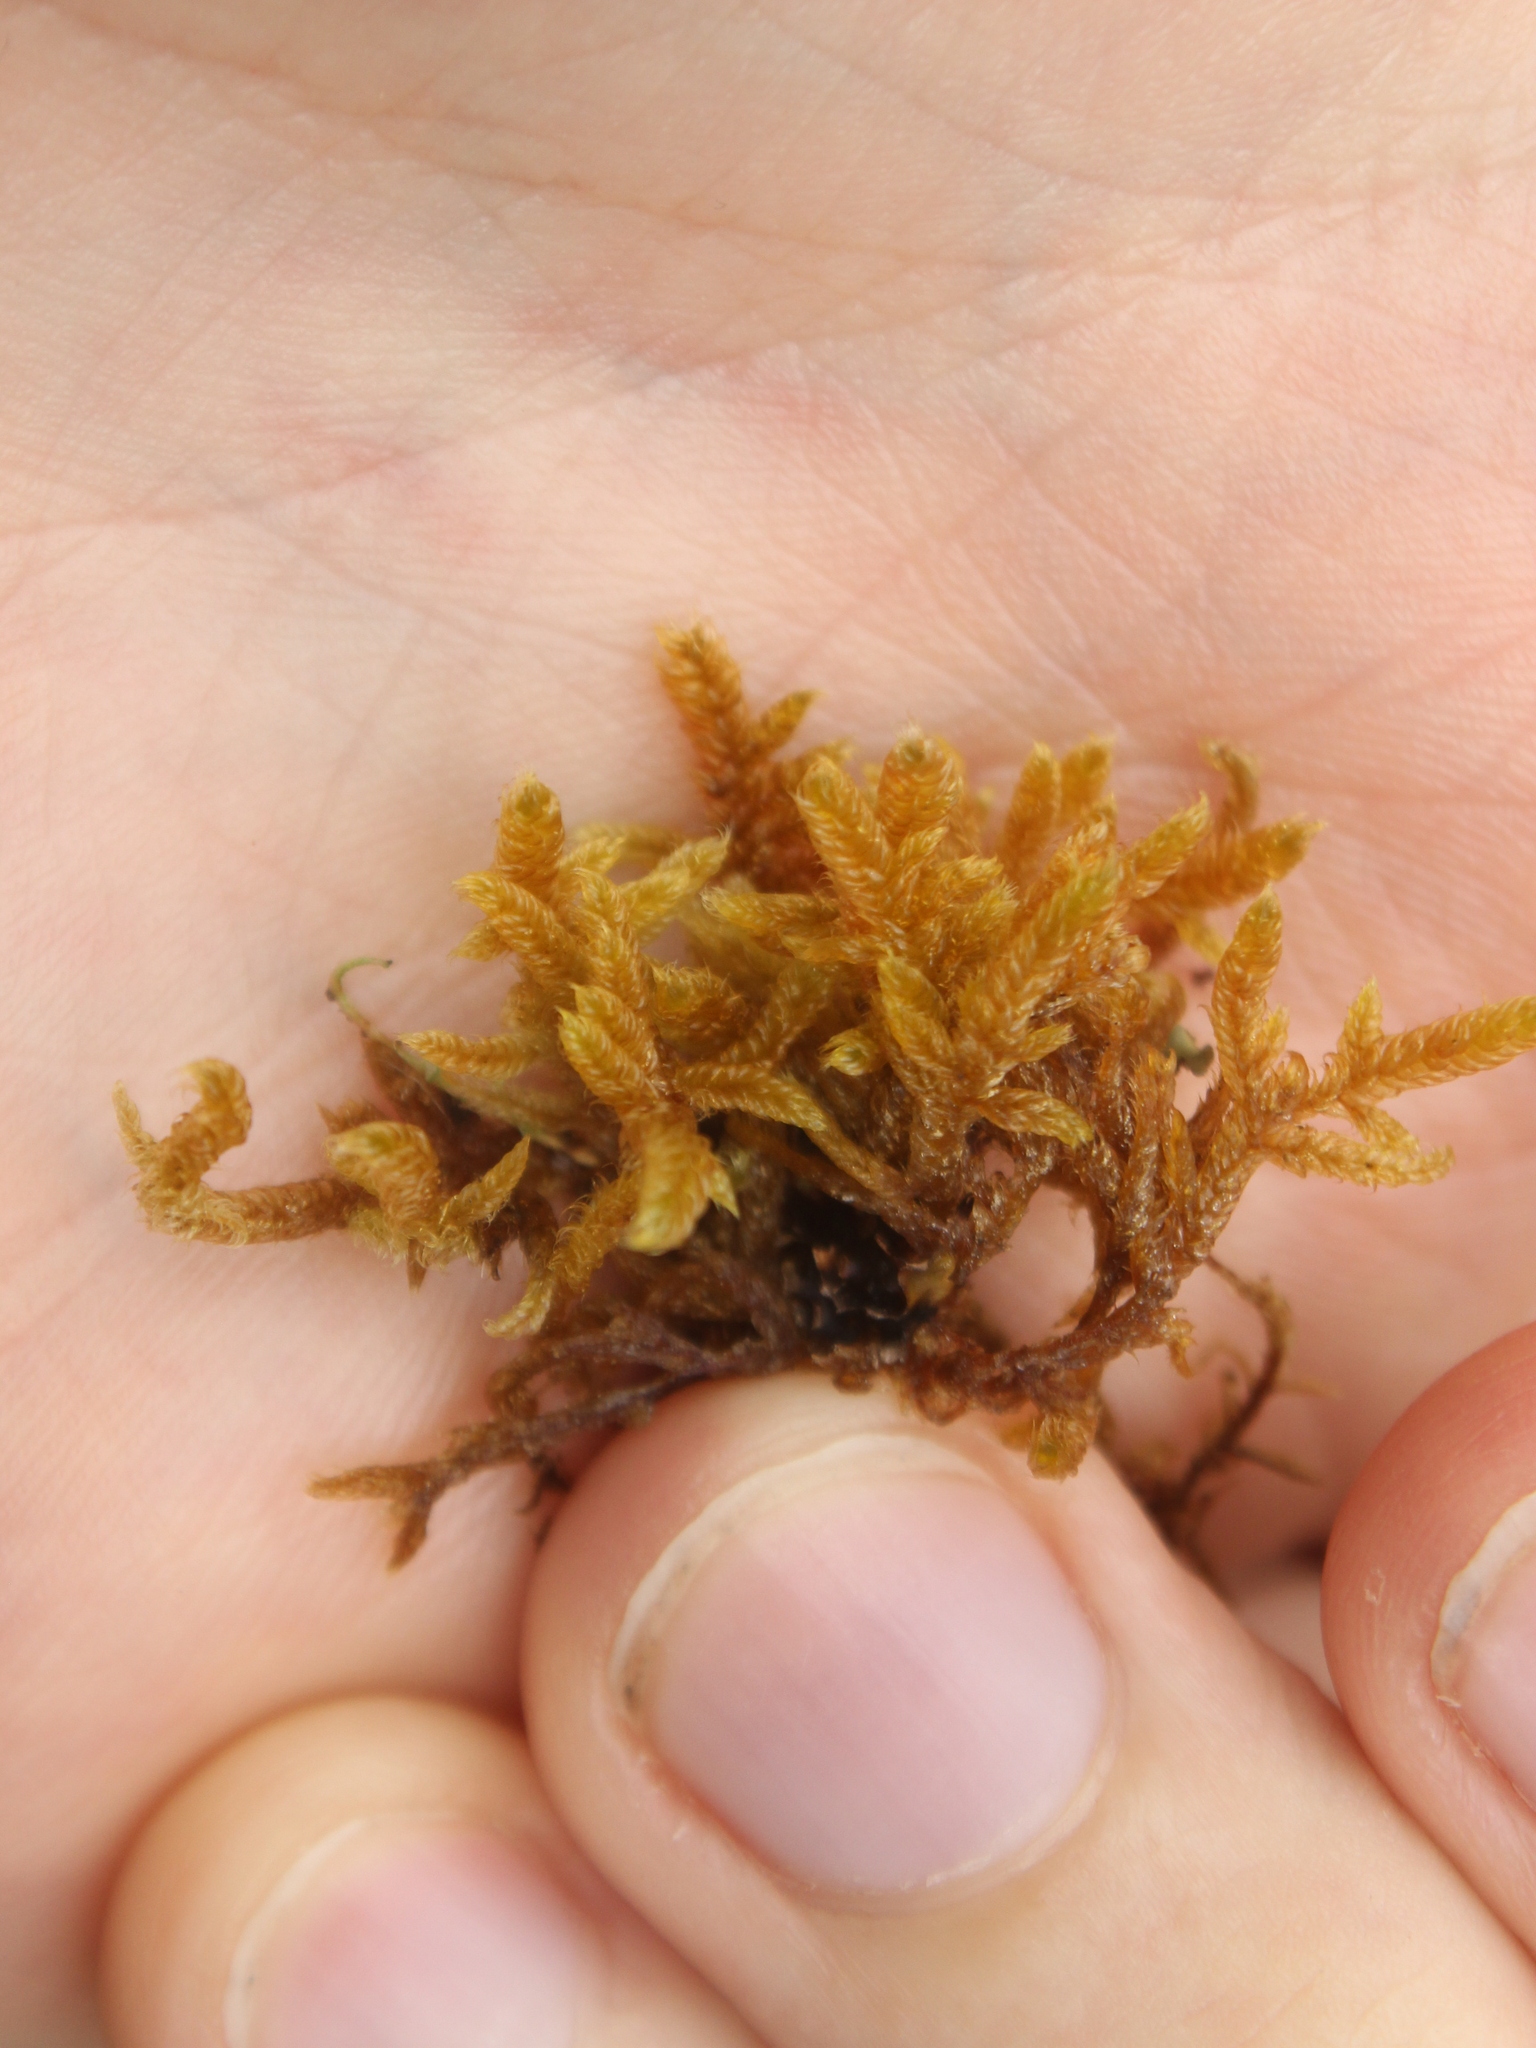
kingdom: Plantae
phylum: Bryophyta
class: Bryopsida
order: Hypnales
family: Hypnaceae
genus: Hypnum
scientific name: Hypnum cupressiforme
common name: Cypress-leaved plait-moss
